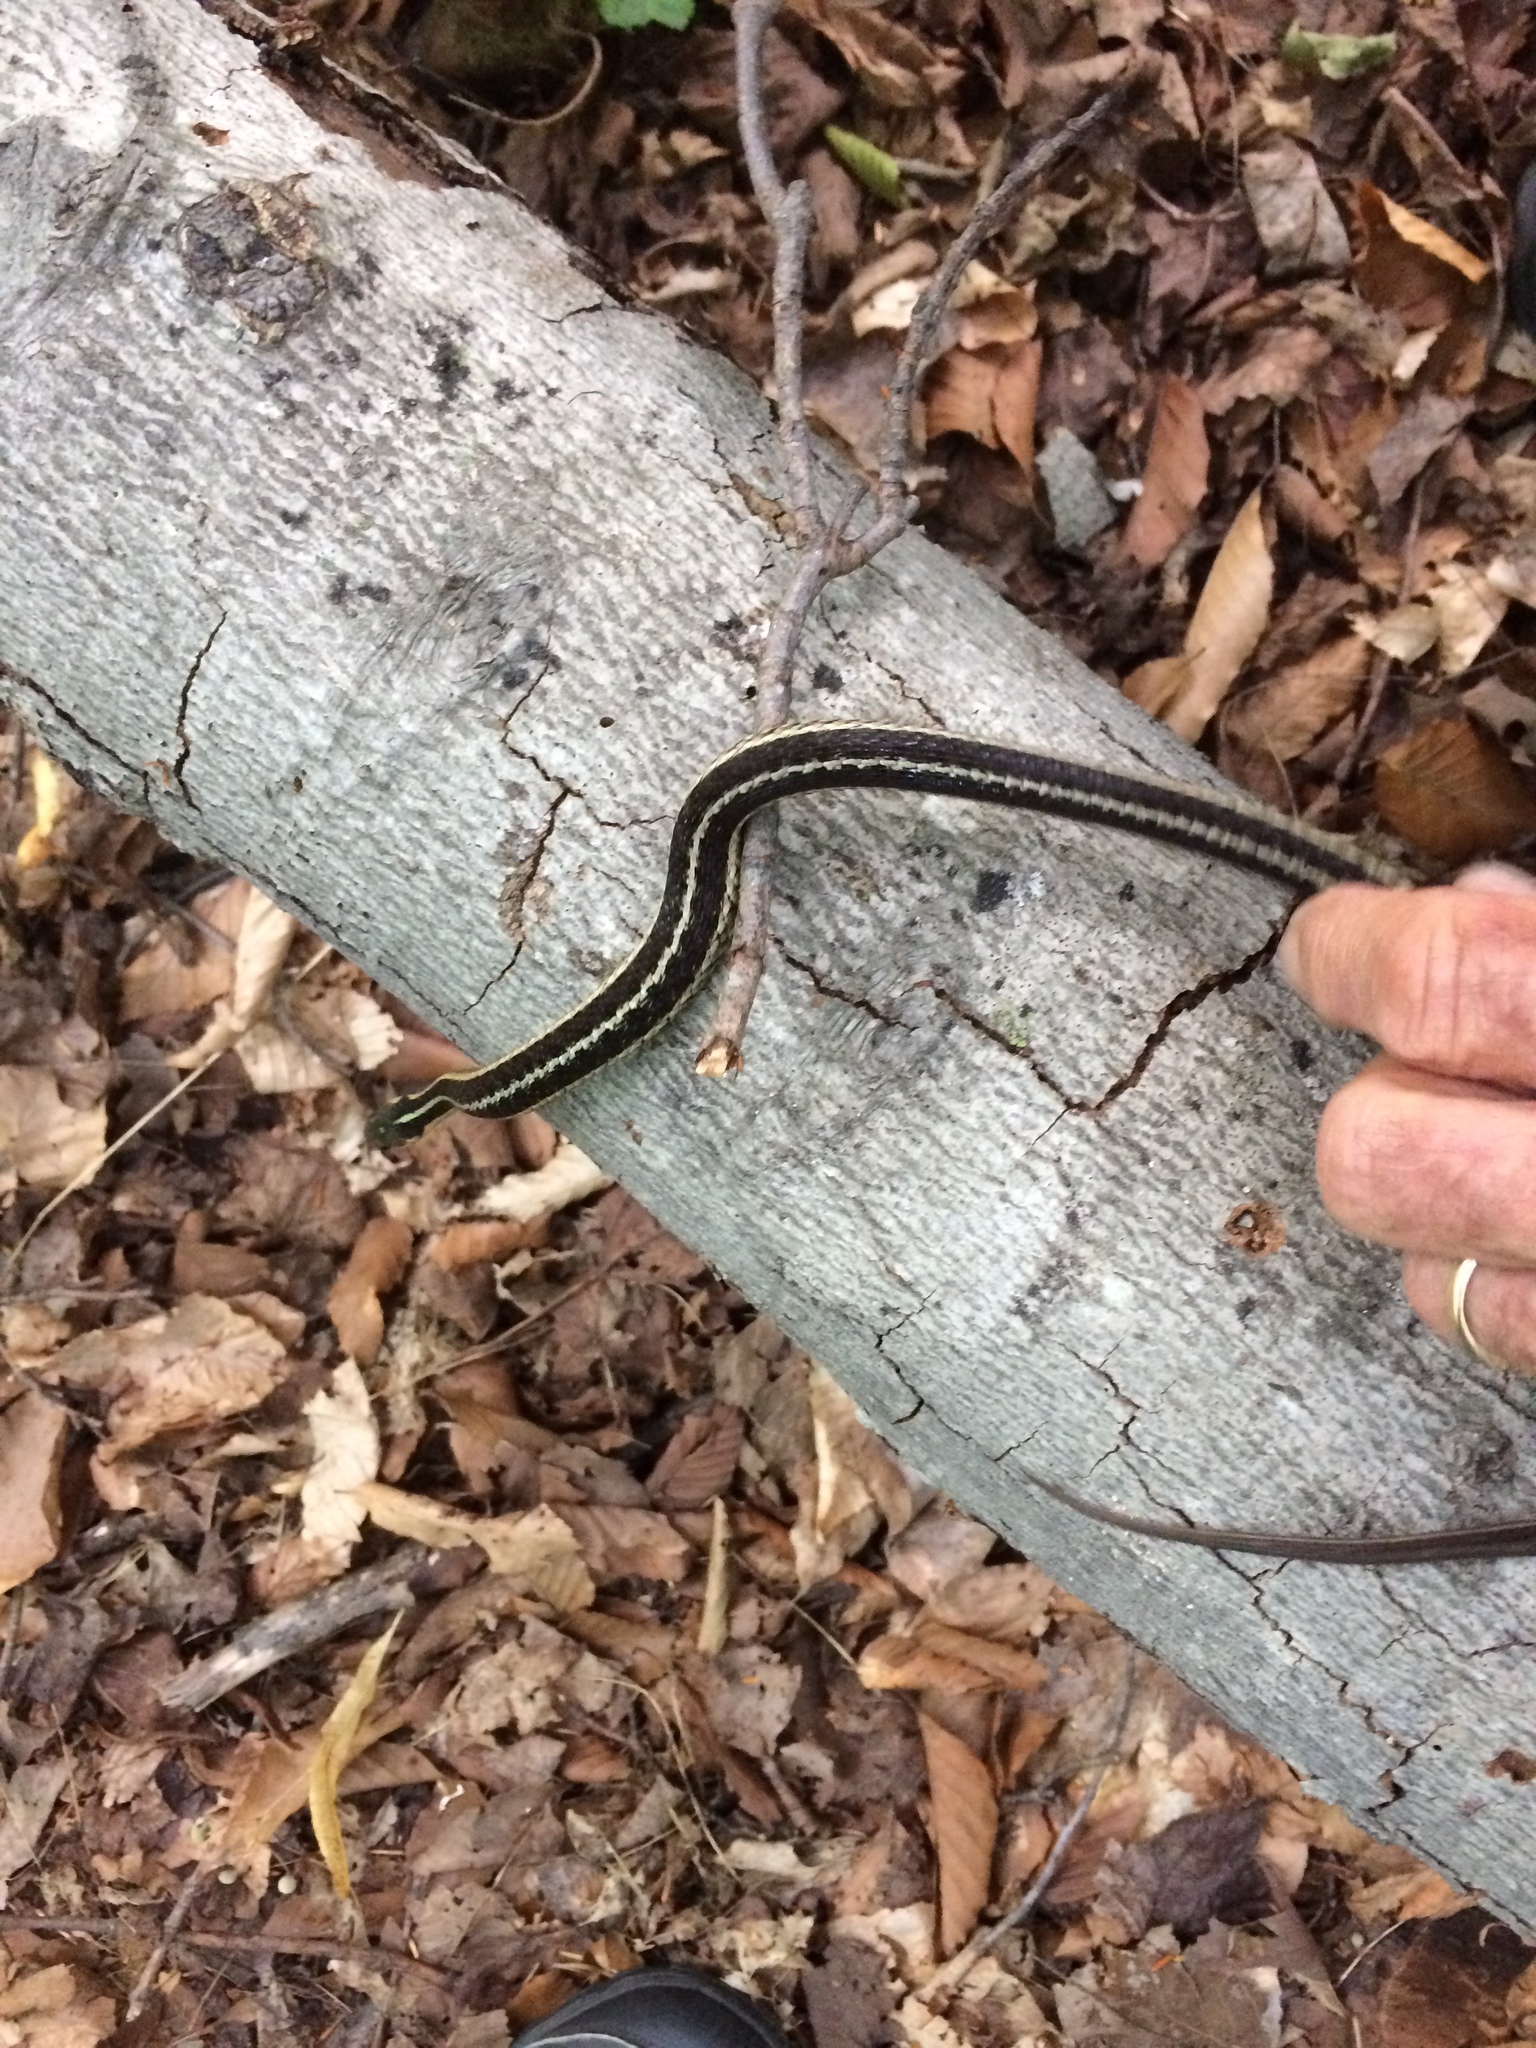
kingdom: Animalia
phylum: Chordata
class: Squamata
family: Colubridae
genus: Thamnophis
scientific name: Thamnophis sirtalis
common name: Common garter snake
